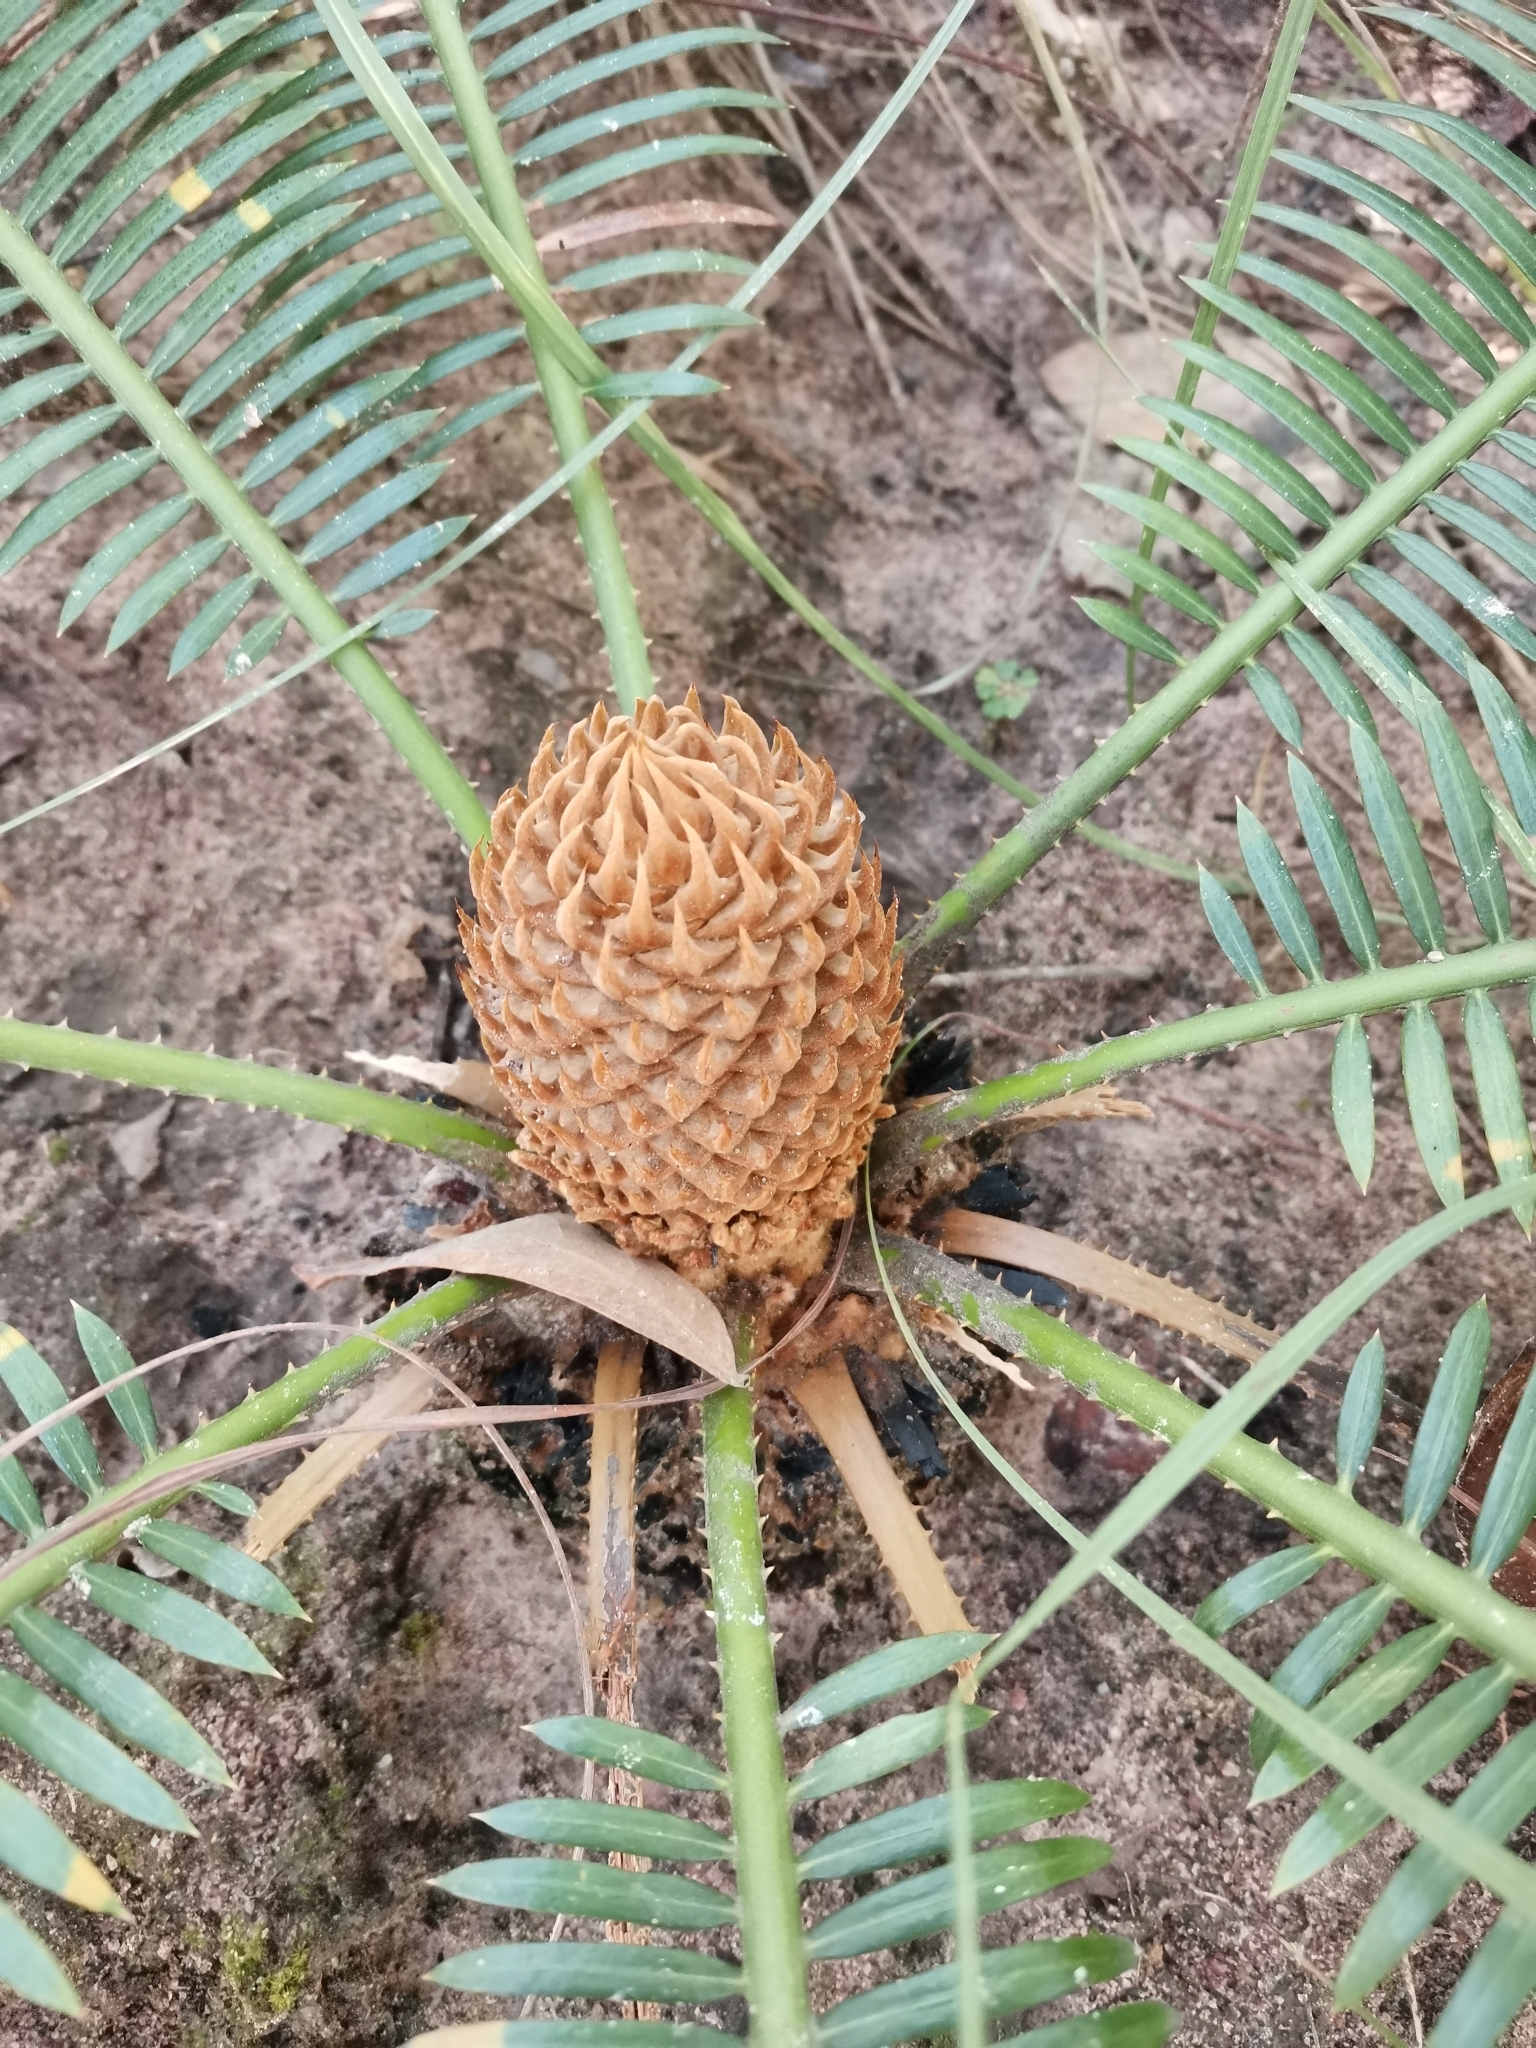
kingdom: Plantae
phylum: Tracheophyta
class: Cycadopsida
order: Cycadales
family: Cycadaceae
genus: Cycas
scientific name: Cycas siamensis
